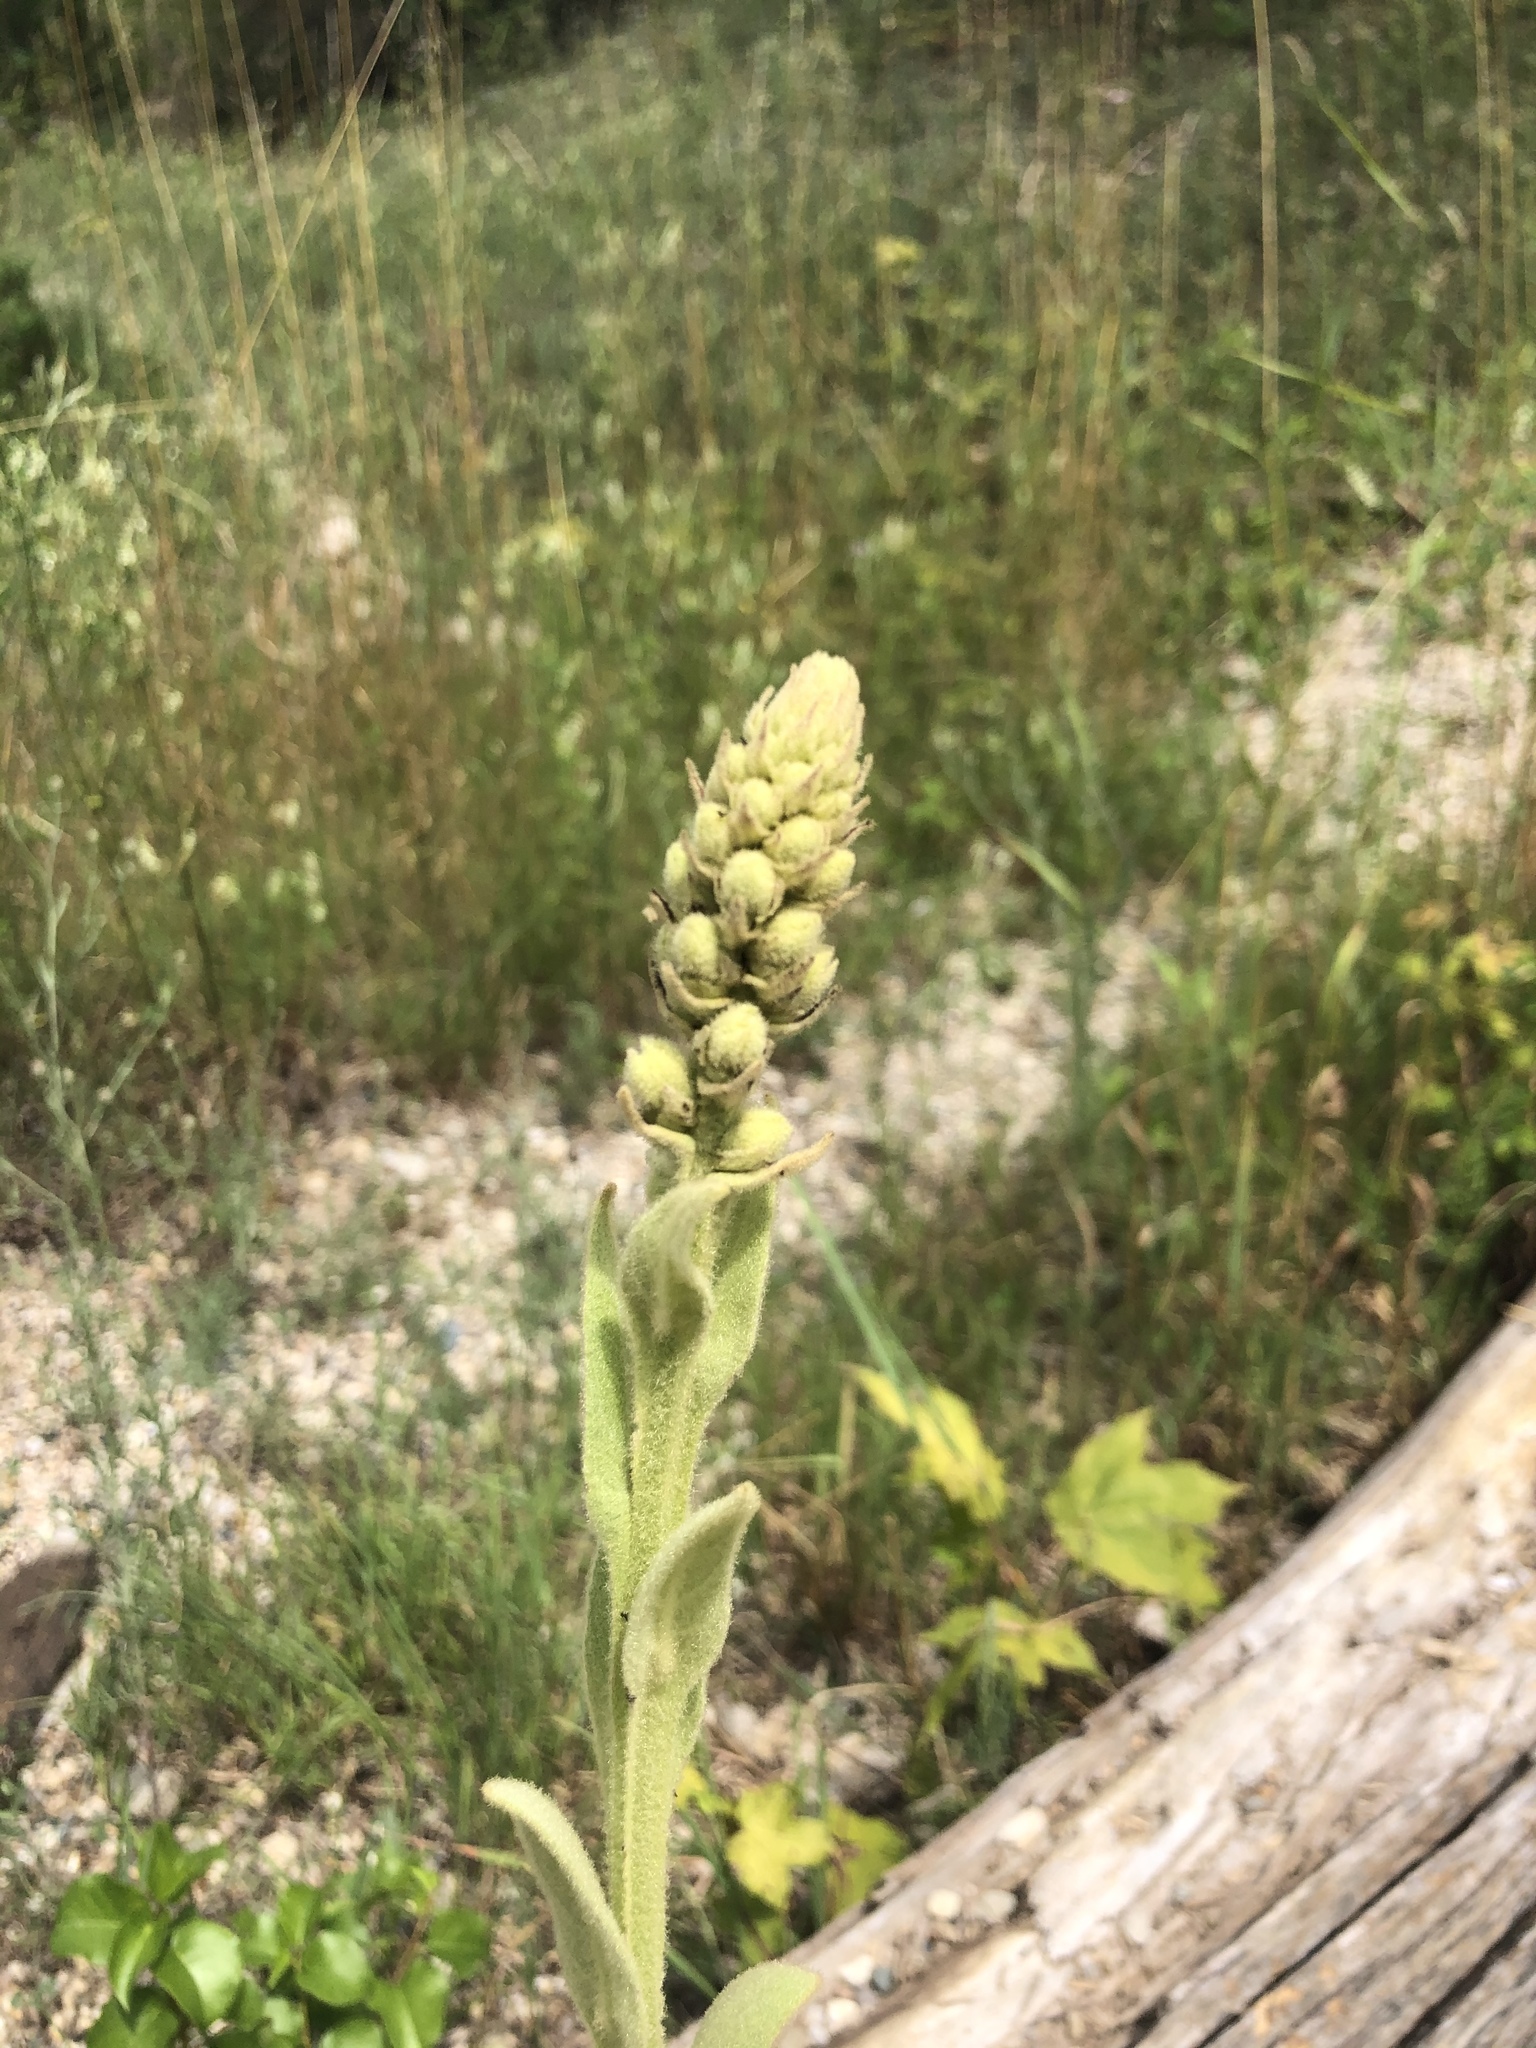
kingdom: Plantae
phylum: Tracheophyta
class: Magnoliopsida
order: Lamiales
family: Scrophulariaceae
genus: Verbascum
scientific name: Verbascum thapsus
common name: Common mullein
